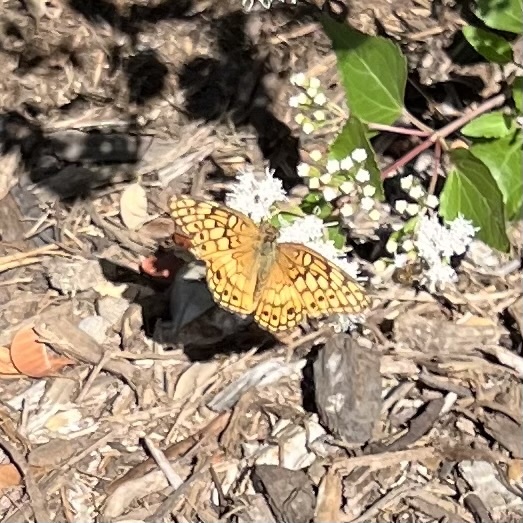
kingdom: Animalia
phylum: Arthropoda
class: Insecta
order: Lepidoptera
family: Nymphalidae
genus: Euptoieta
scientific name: Euptoieta claudia
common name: Variegated fritillary
